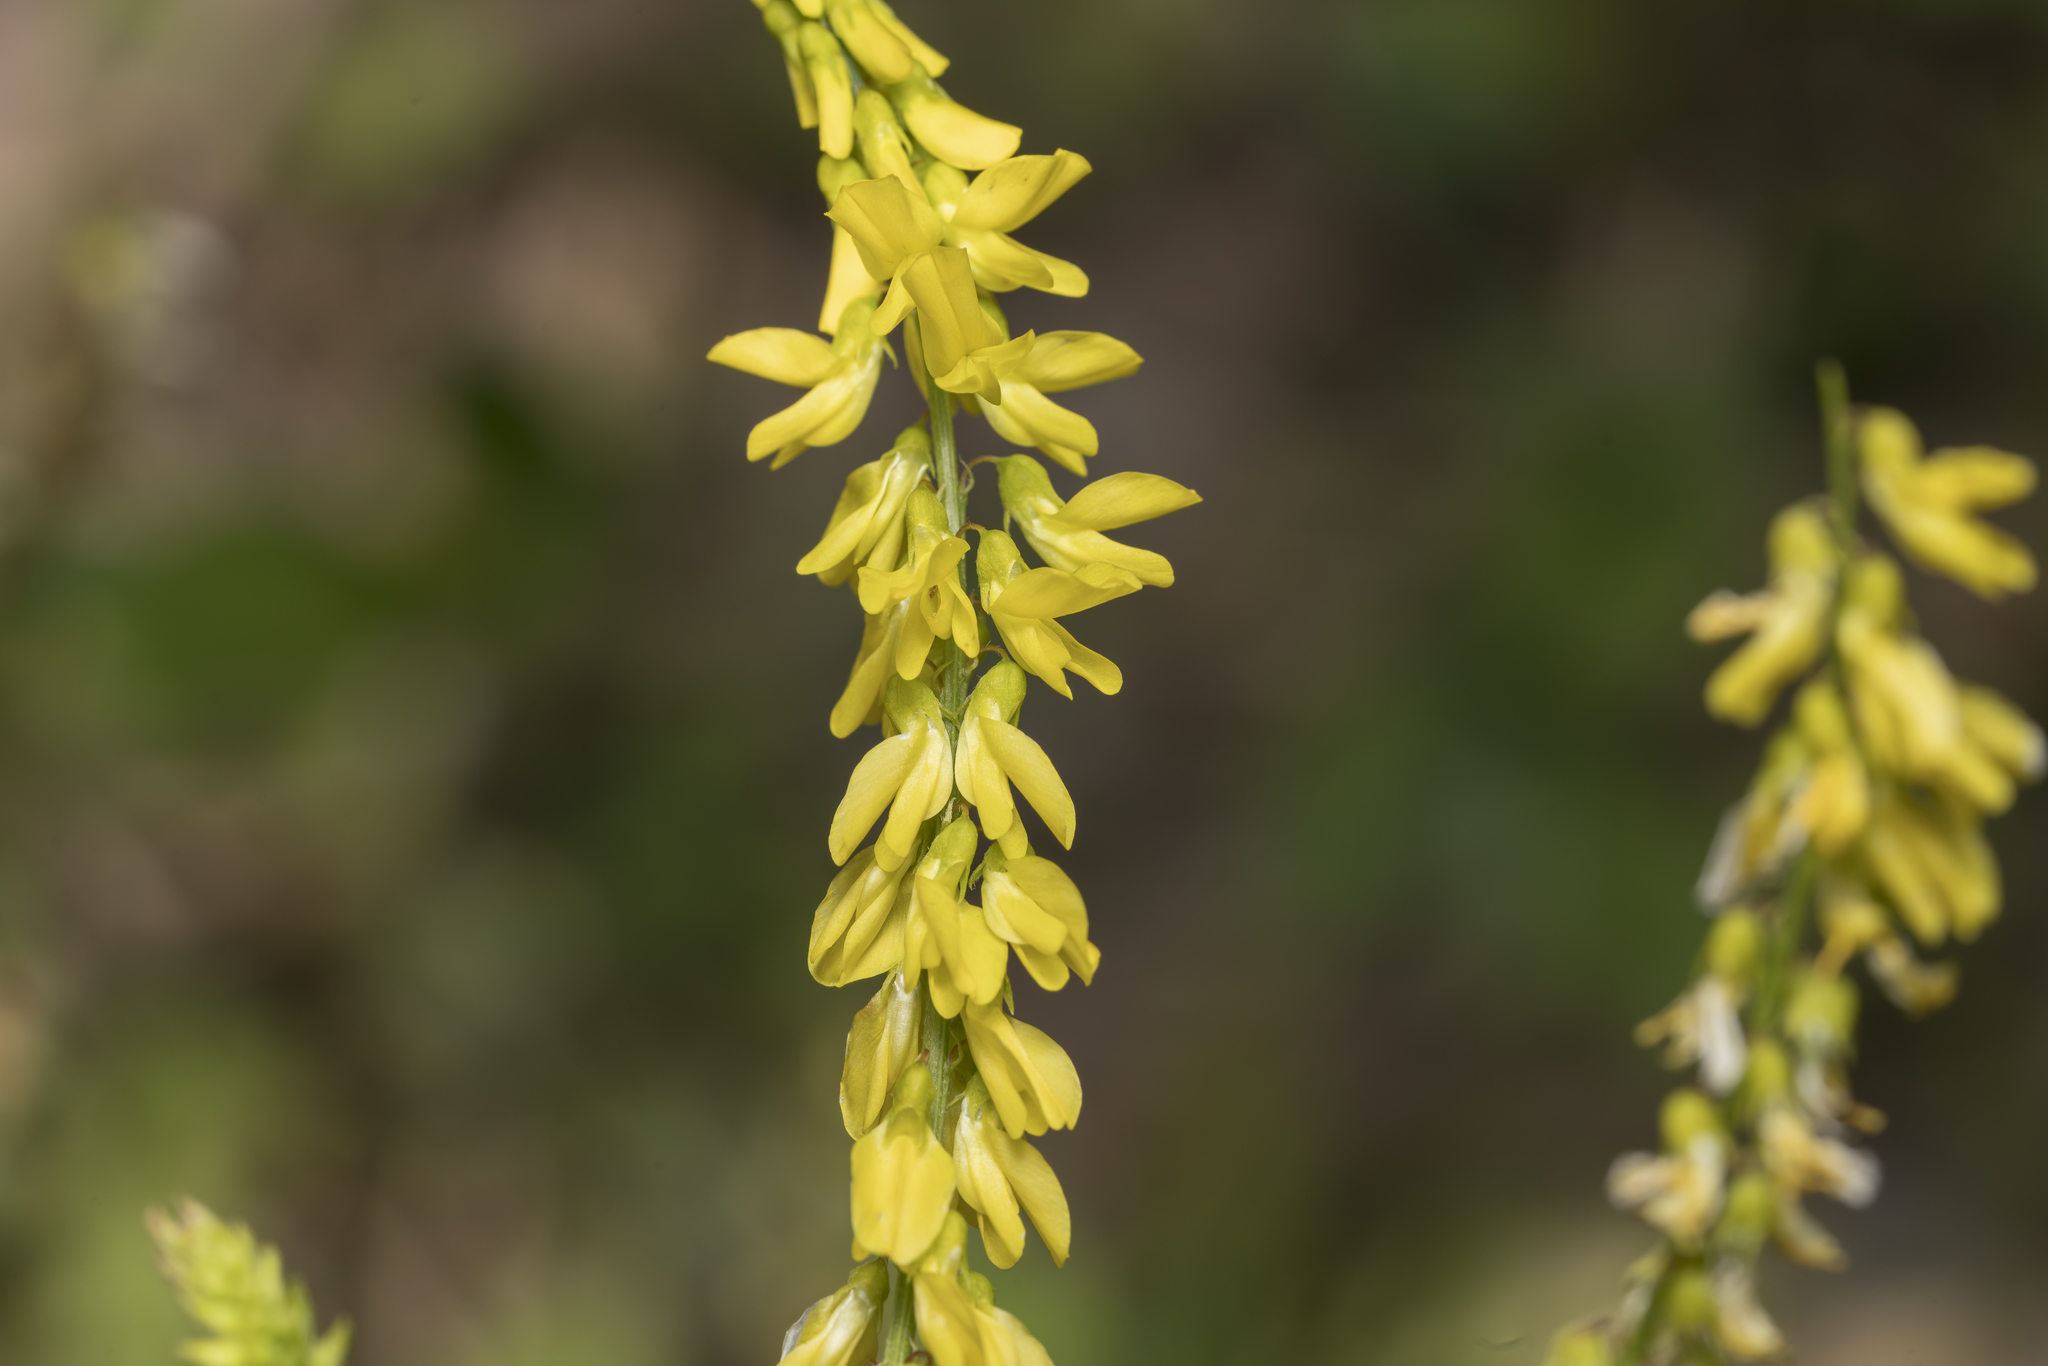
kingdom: Plantae
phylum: Tracheophyta
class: Magnoliopsida
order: Fabales
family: Fabaceae
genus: Melilotus
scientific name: Melilotus officinalis
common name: Sweetclover
